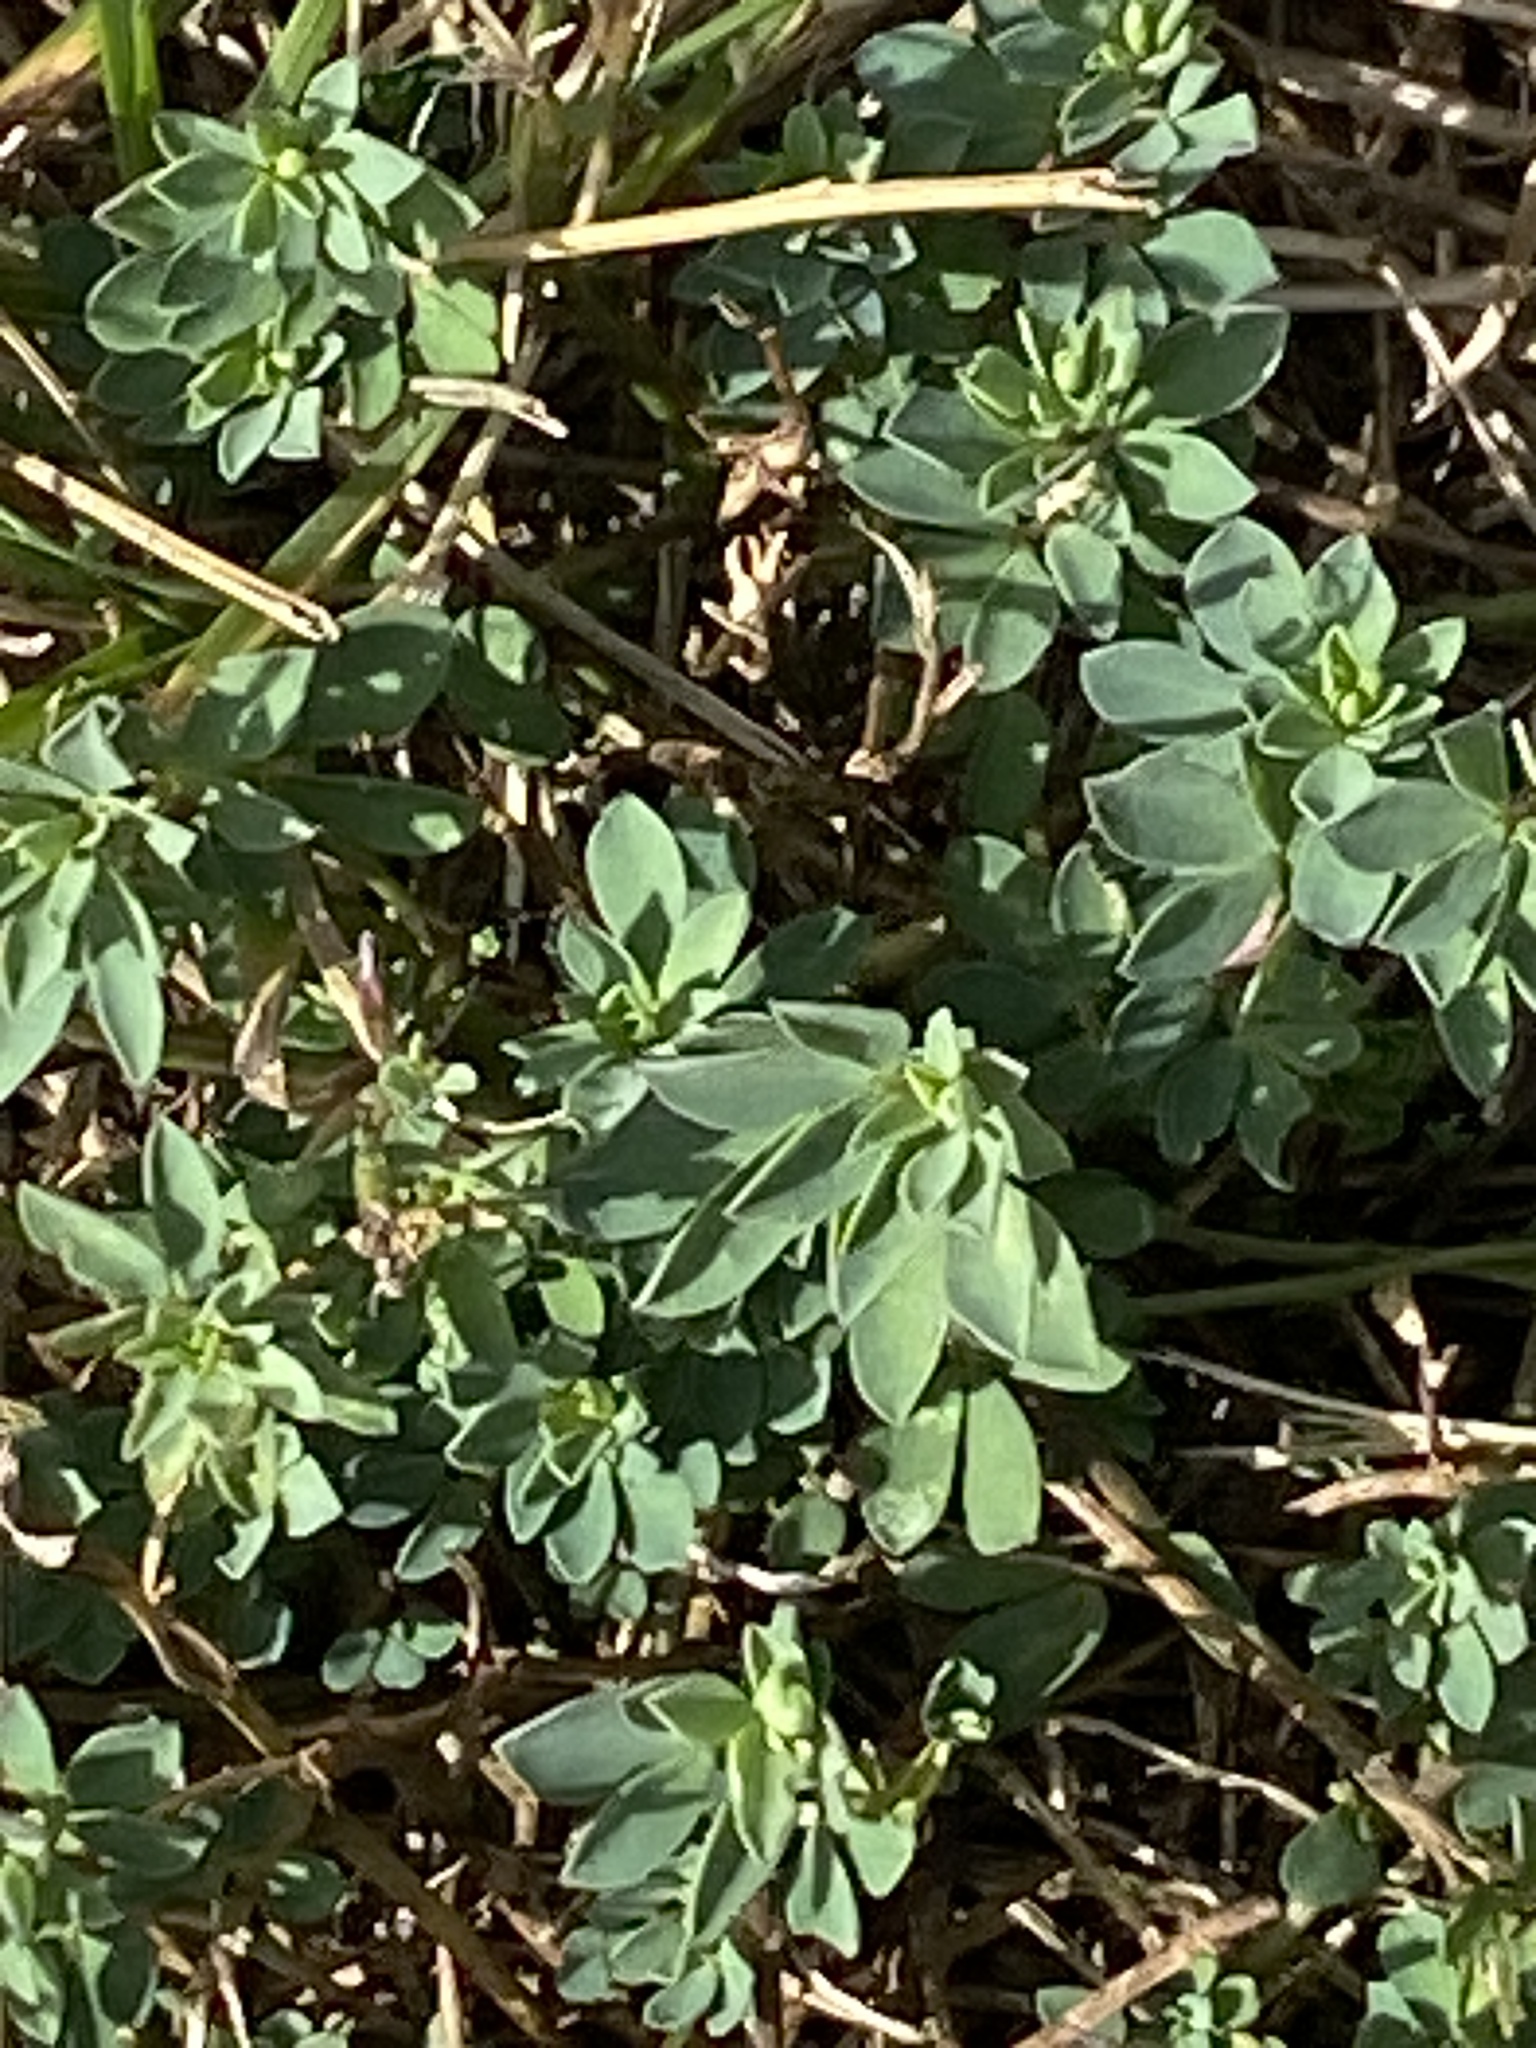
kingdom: Plantae
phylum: Tracheophyta
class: Magnoliopsida
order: Fabales
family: Fabaceae
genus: Lotus
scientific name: Lotus corniculatus
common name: Common bird's-foot-trefoil
